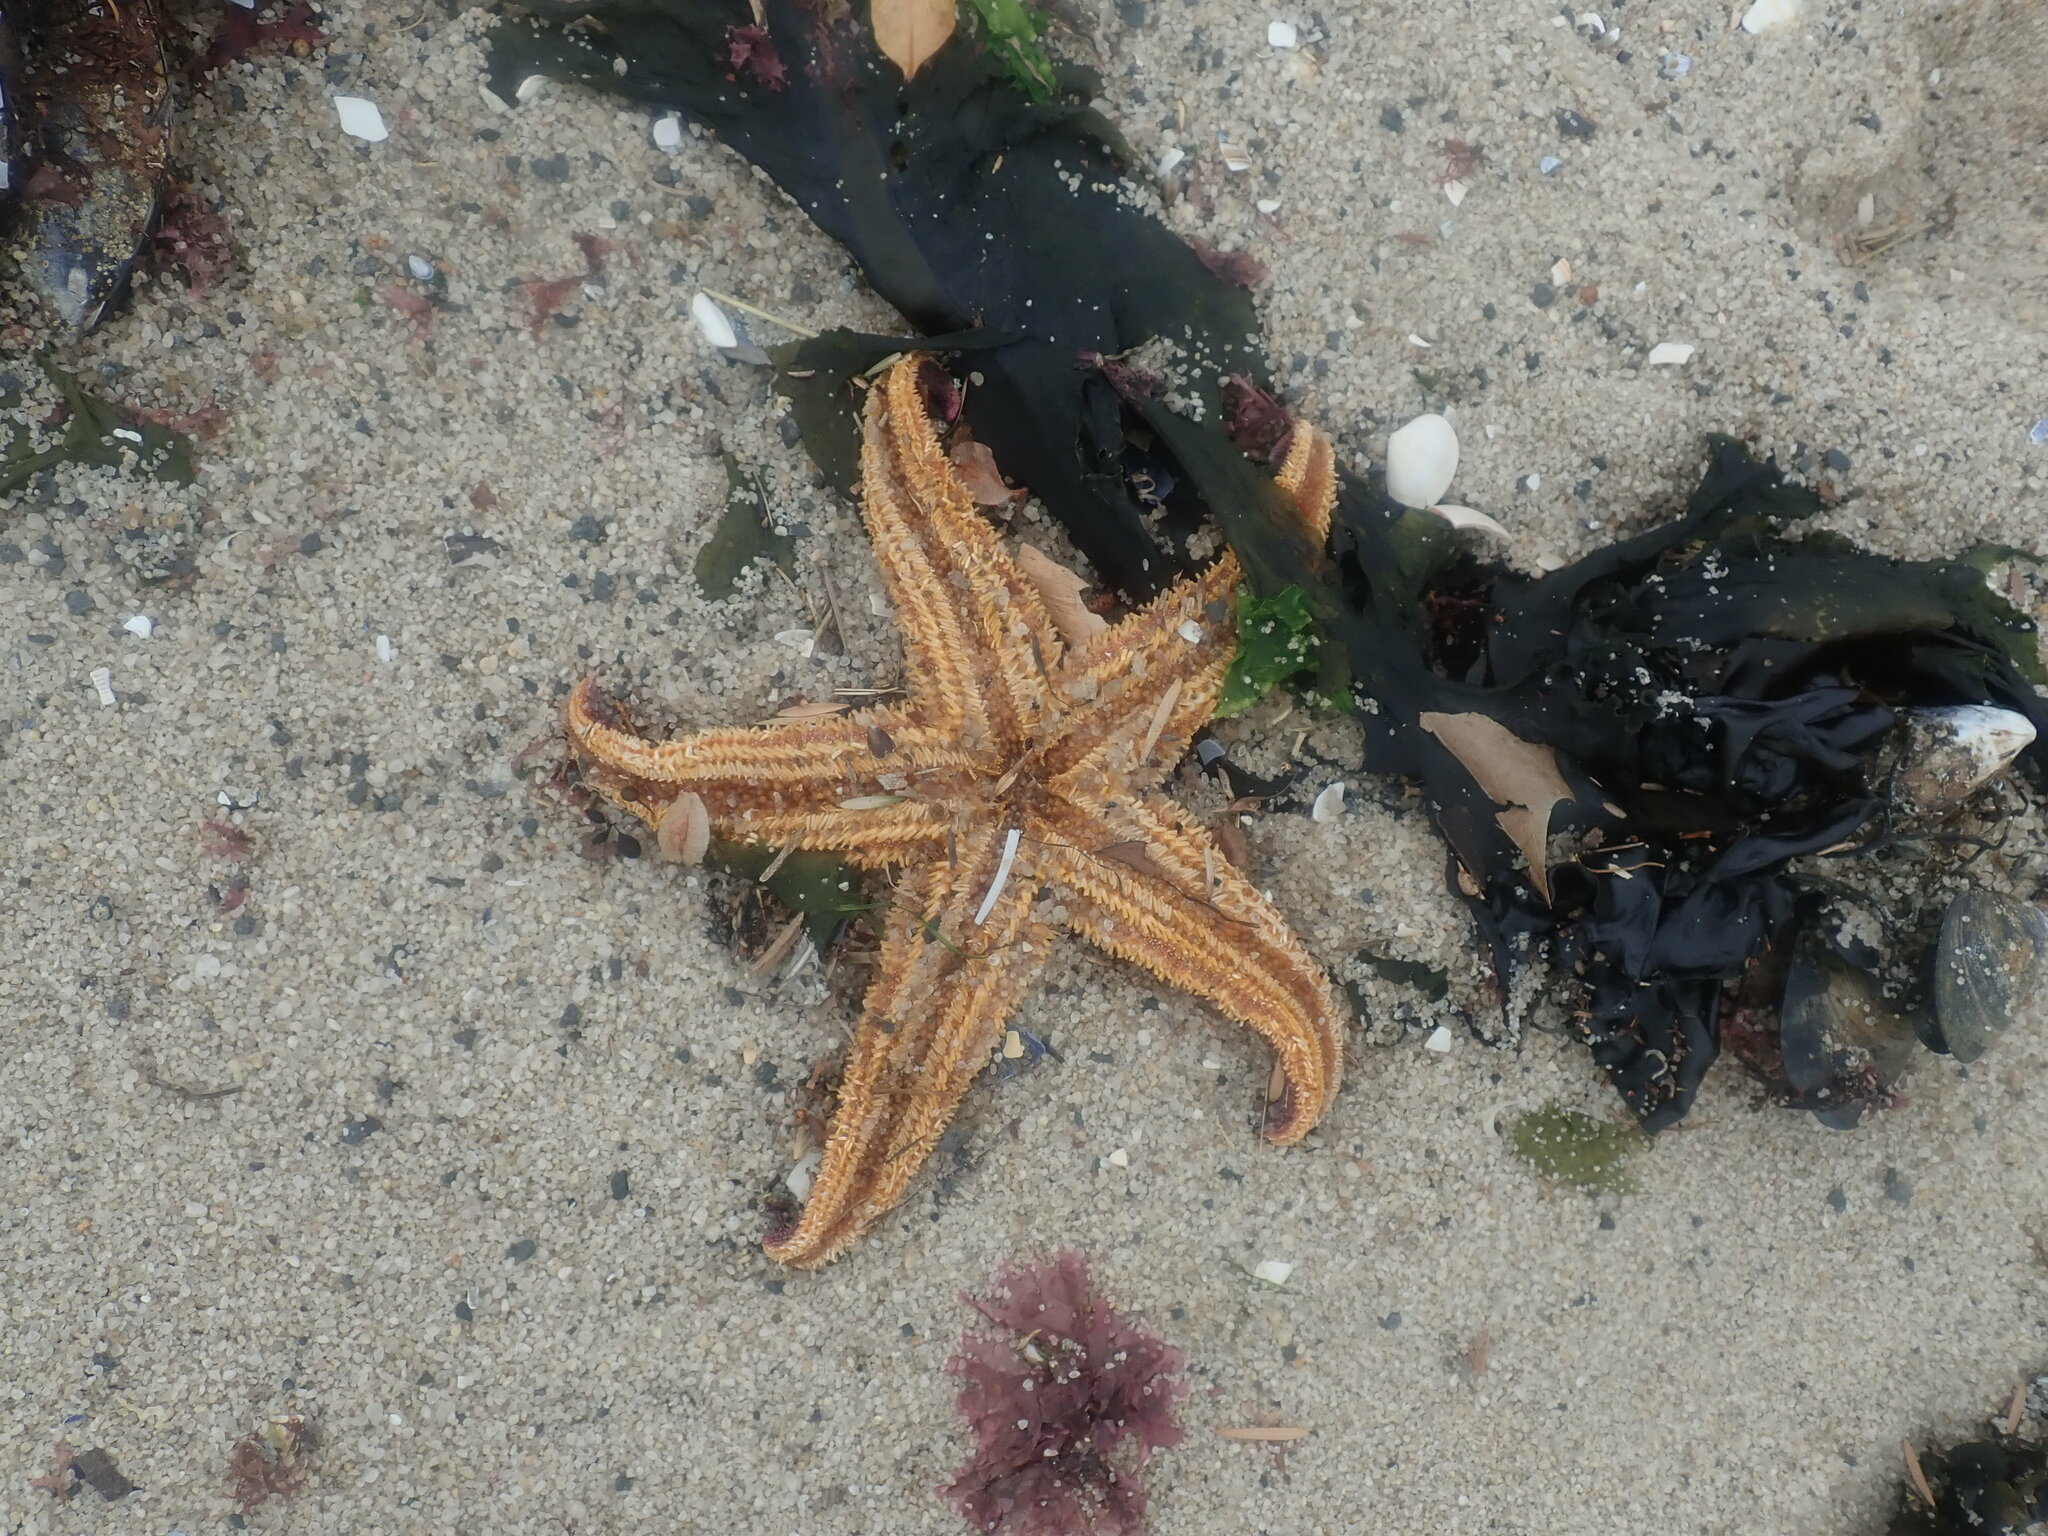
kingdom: Animalia
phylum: Echinodermata
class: Asteroidea
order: Forcipulatida
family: Asteriidae
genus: Asterias
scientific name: Asterias amurensis
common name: Flat-bottomed star
